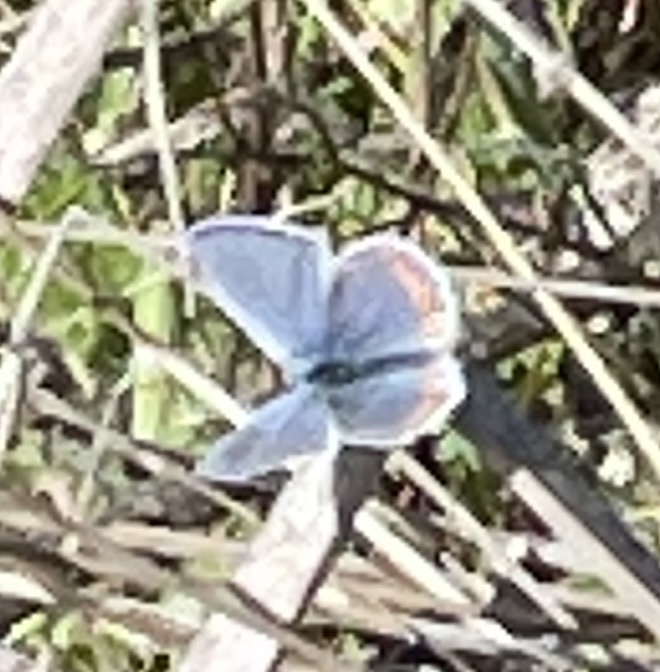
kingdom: Animalia
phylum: Arthropoda
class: Insecta
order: Lepidoptera
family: Lycaenidae
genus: Icaricia
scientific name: Icaricia acmon
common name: Acmon blue
